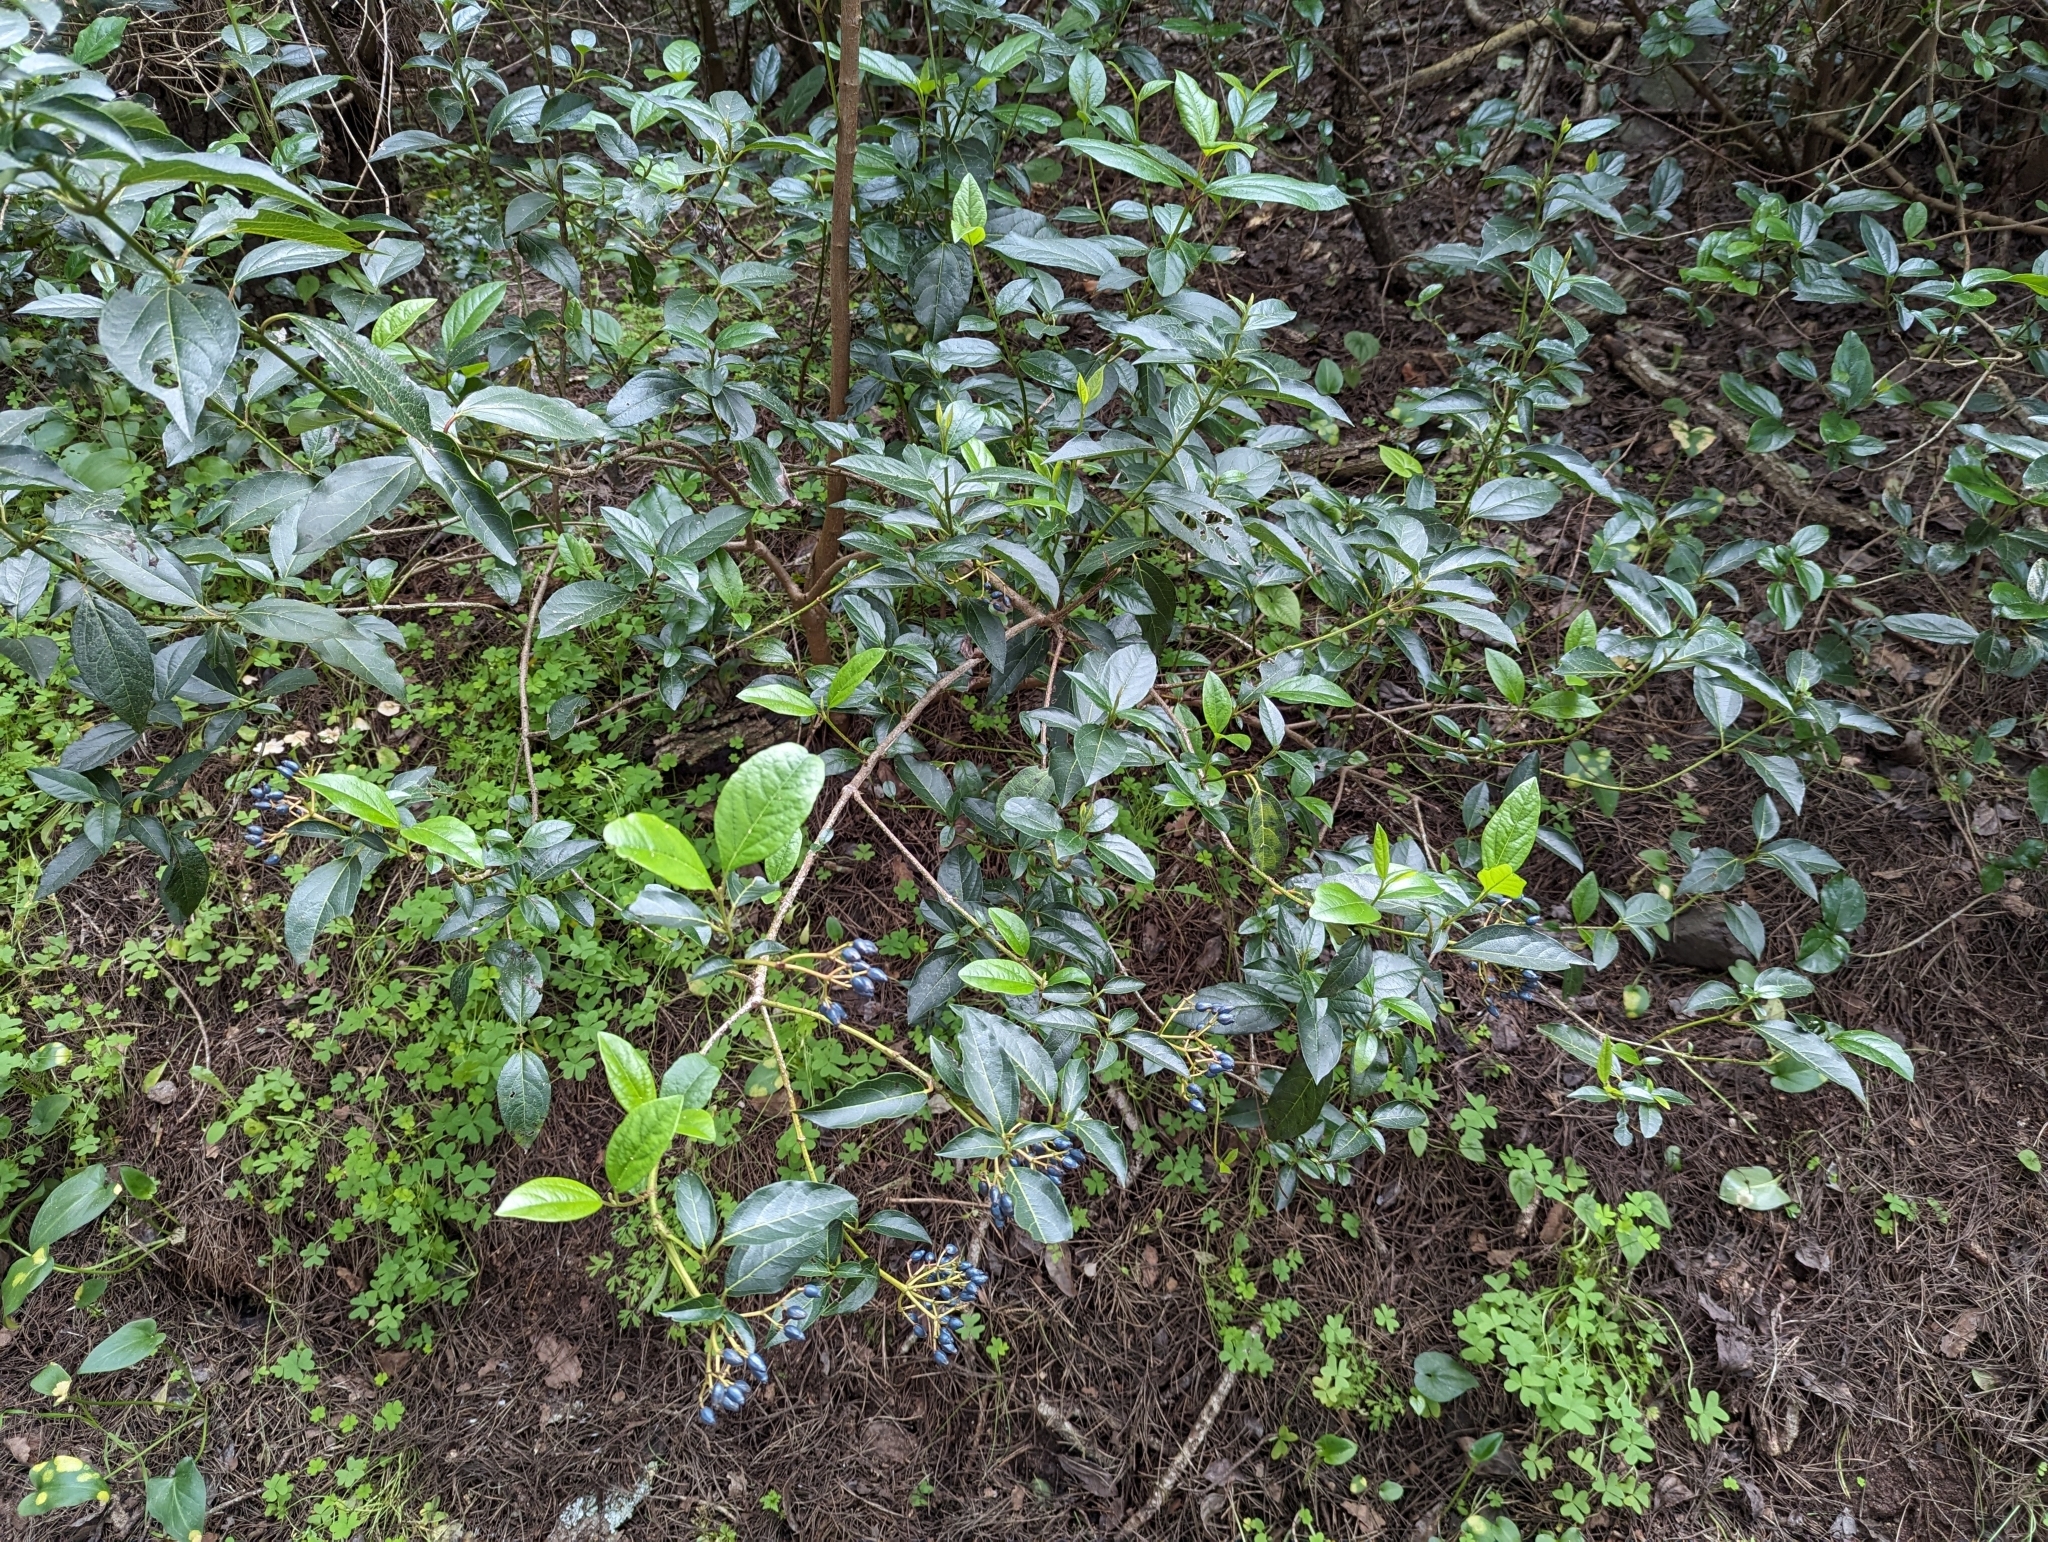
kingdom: Plantae
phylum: Tracheophyta
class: Magnoliopsida
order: Dipsacales
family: Viburnaceae
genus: Viburnum
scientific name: Viburnum tinus
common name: Laurustinus
